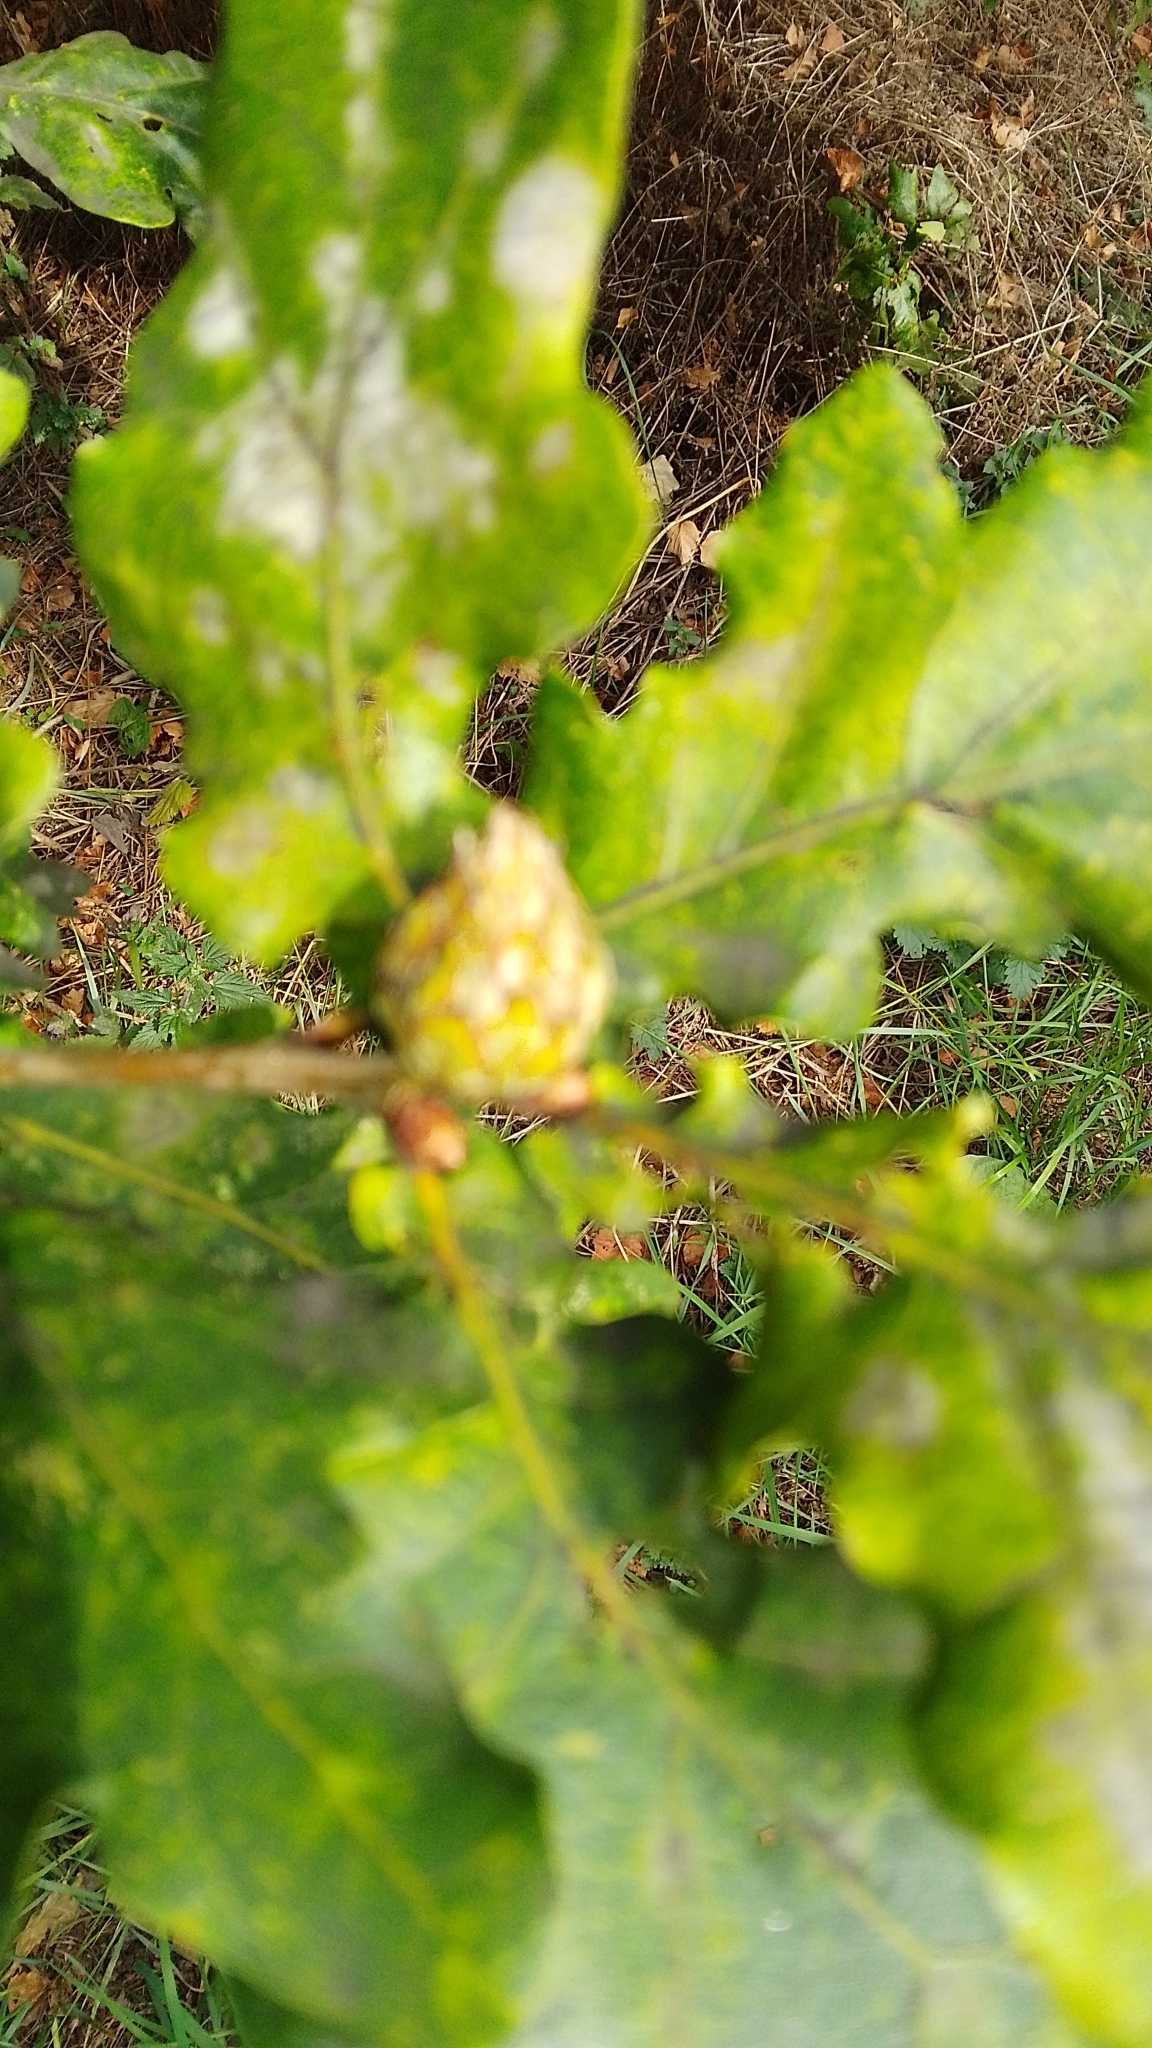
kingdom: Animalia
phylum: Arthropoda
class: Insecta
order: Hymenoptera
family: Cynipidae
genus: Andricus
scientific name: Andricus foecundatrix
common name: Artichoke gall
